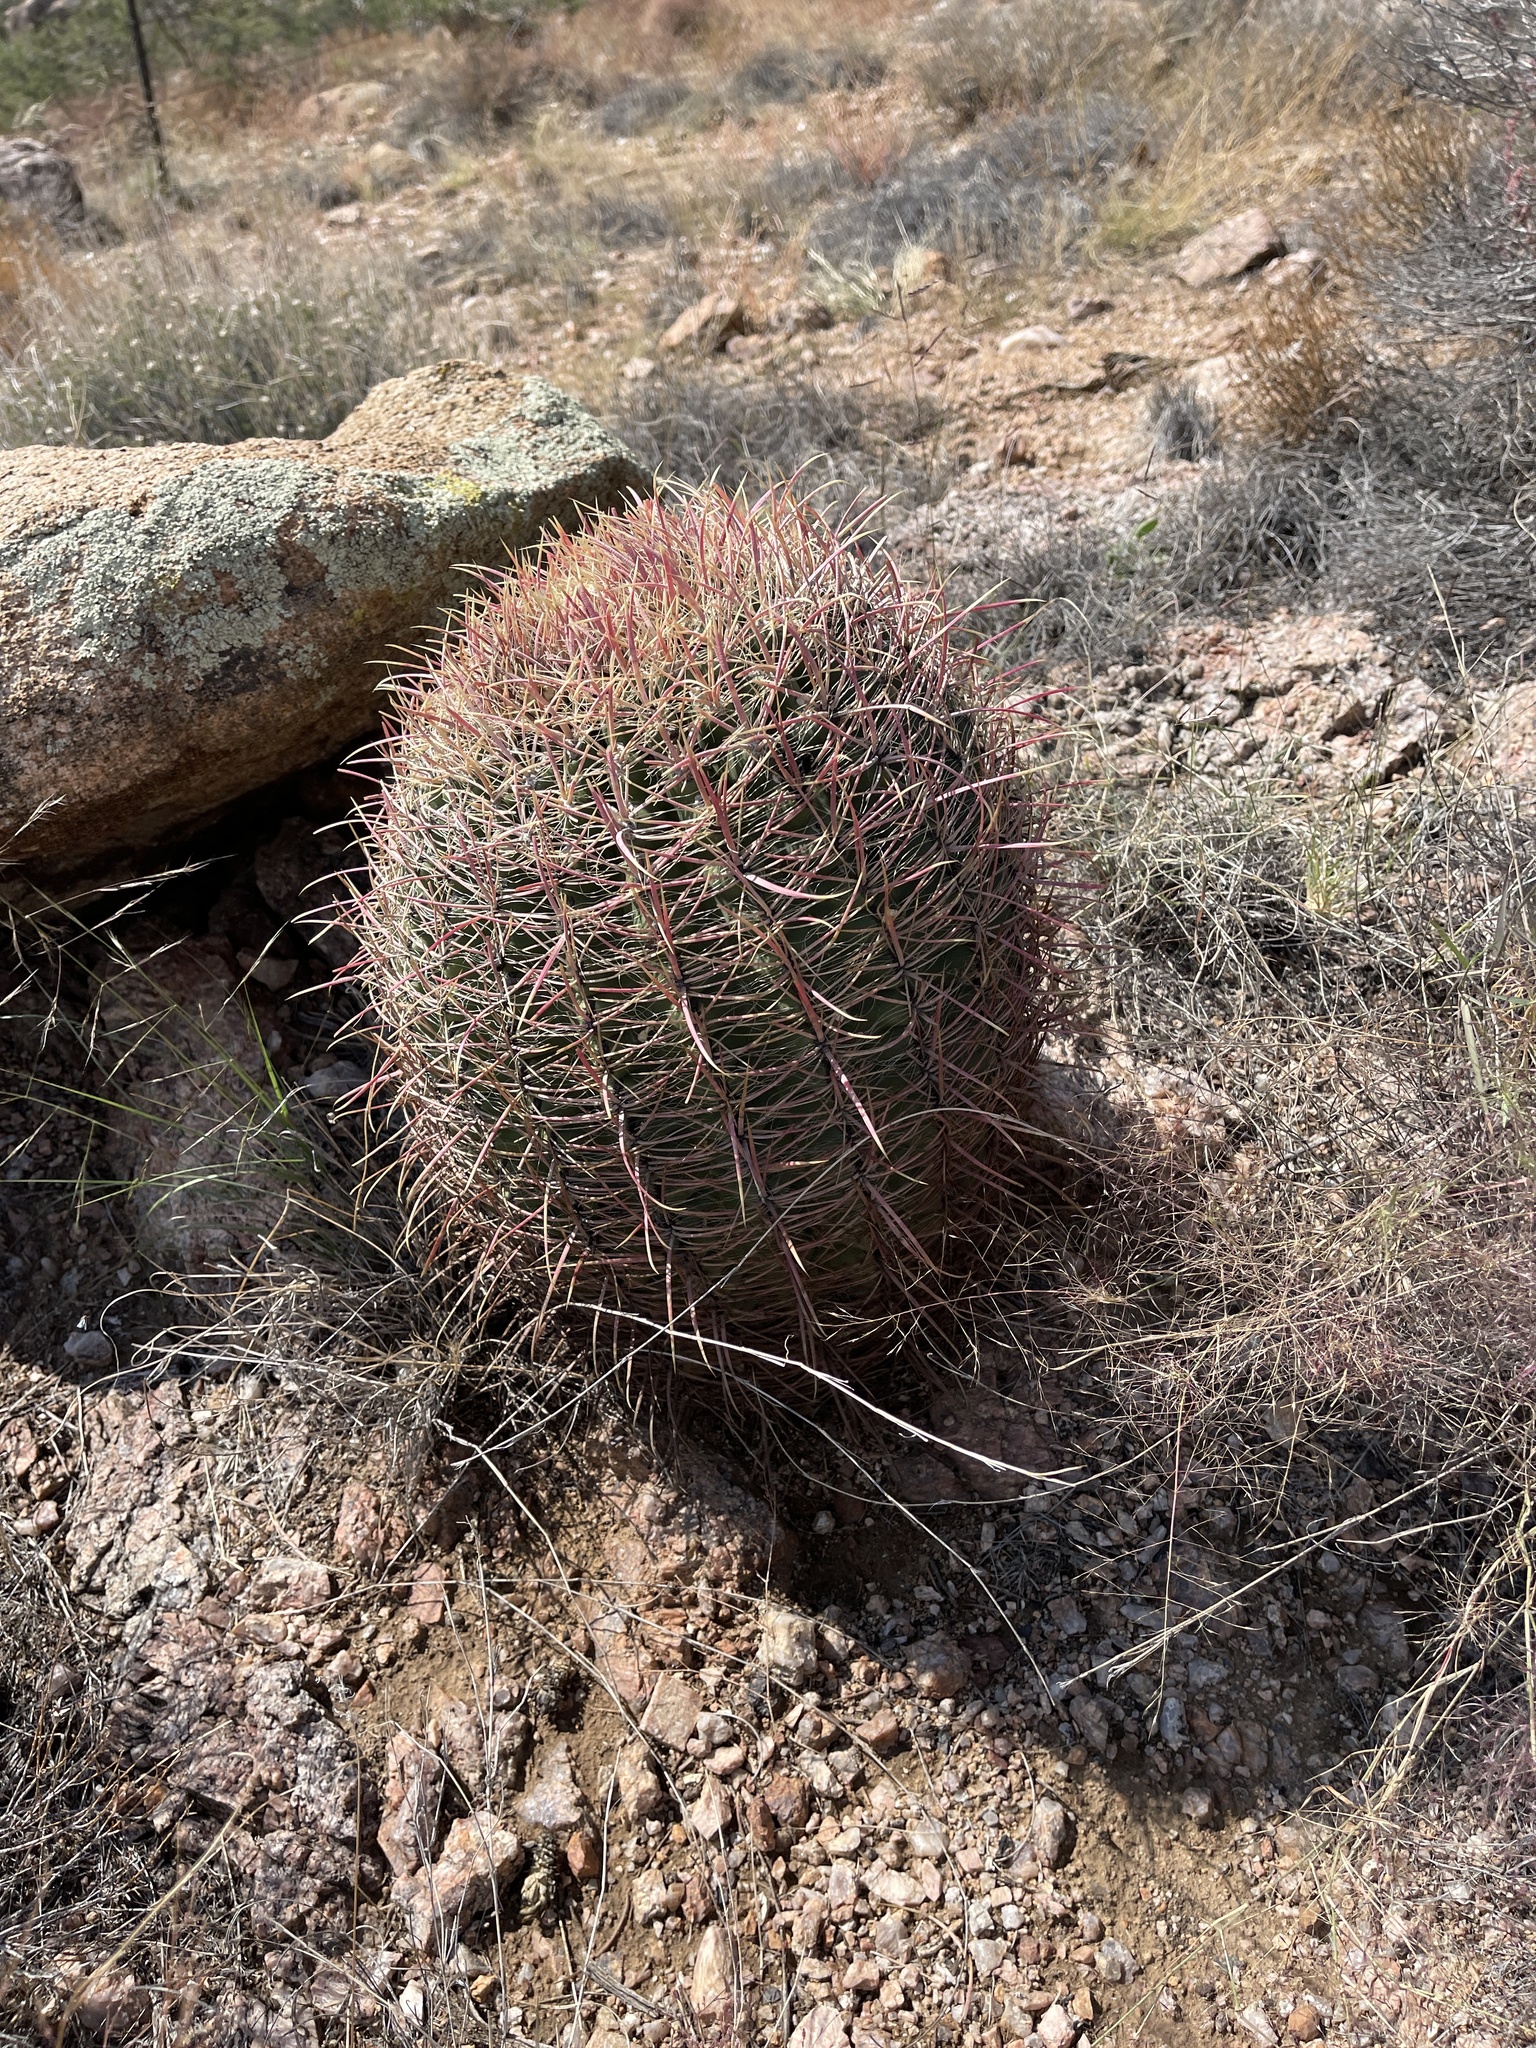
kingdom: Plantae
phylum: Tracheophyta
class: Magnoliopsida
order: Caryophyllales
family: Cactaceae
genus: Ferocactus
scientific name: Ferocactus cylindraceus
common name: California barrel cactus
